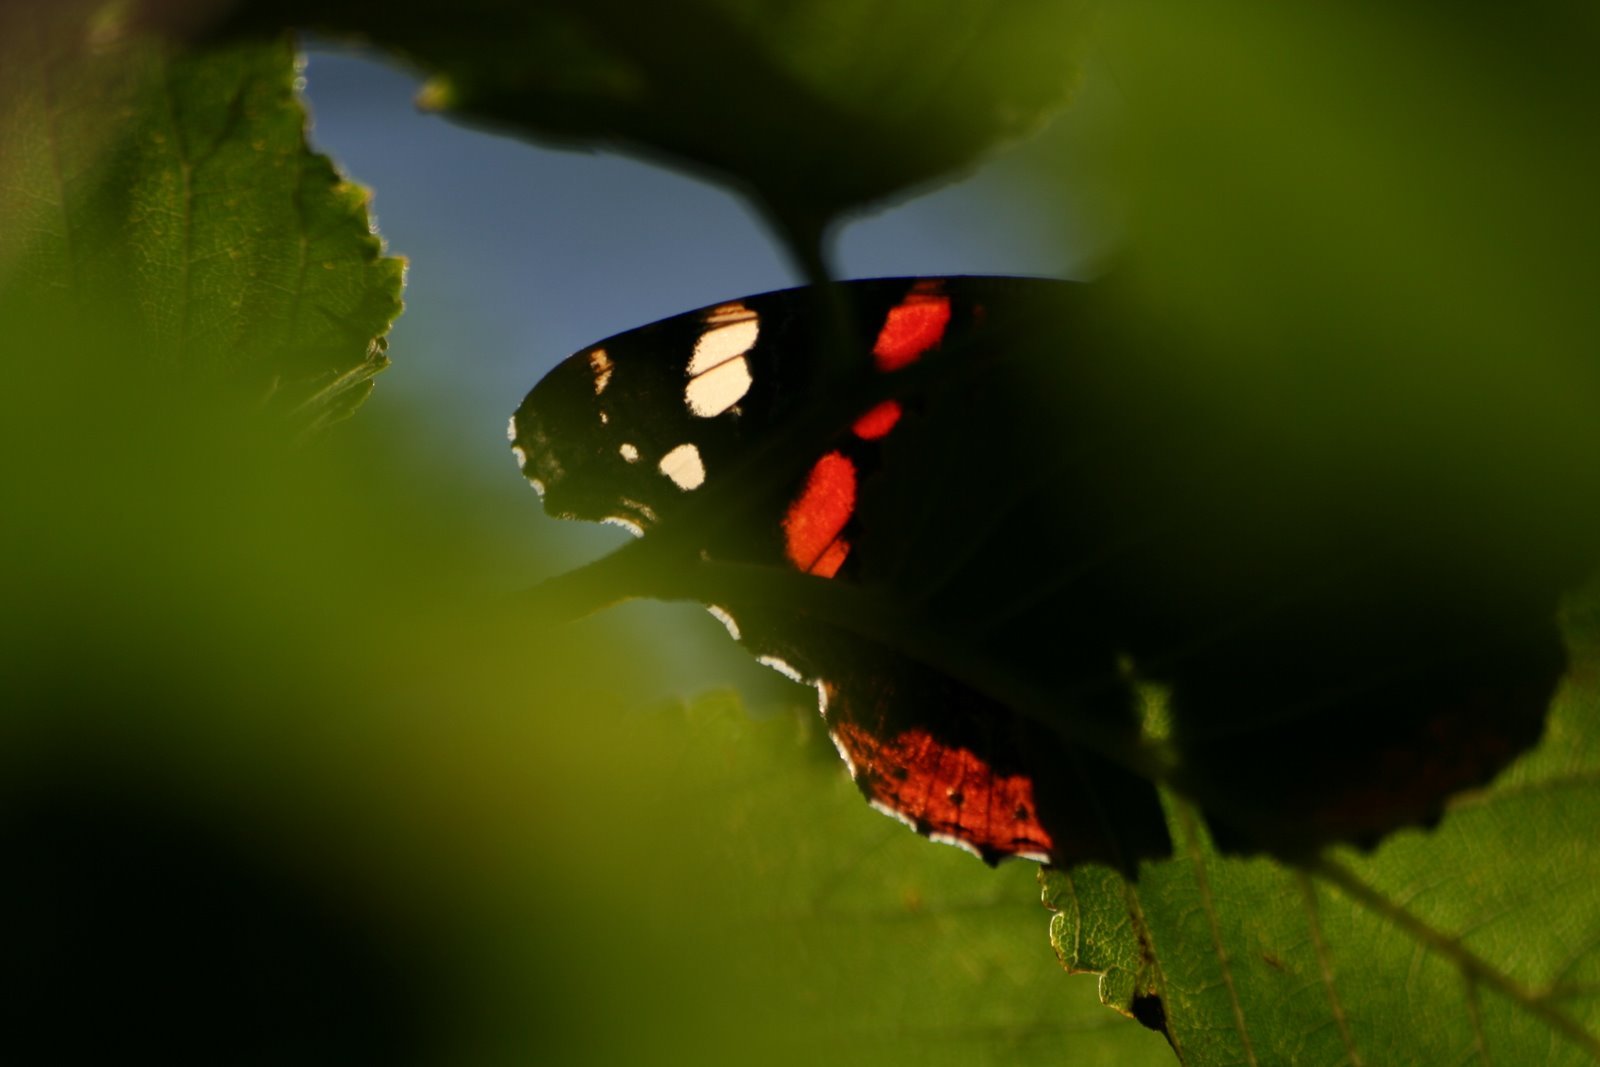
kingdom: Animalia
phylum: Arthropoda
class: Insecta
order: Lepidoptera
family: Nymphalidae
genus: Vanessa
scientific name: Vanessa atalanta
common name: Red admiral
